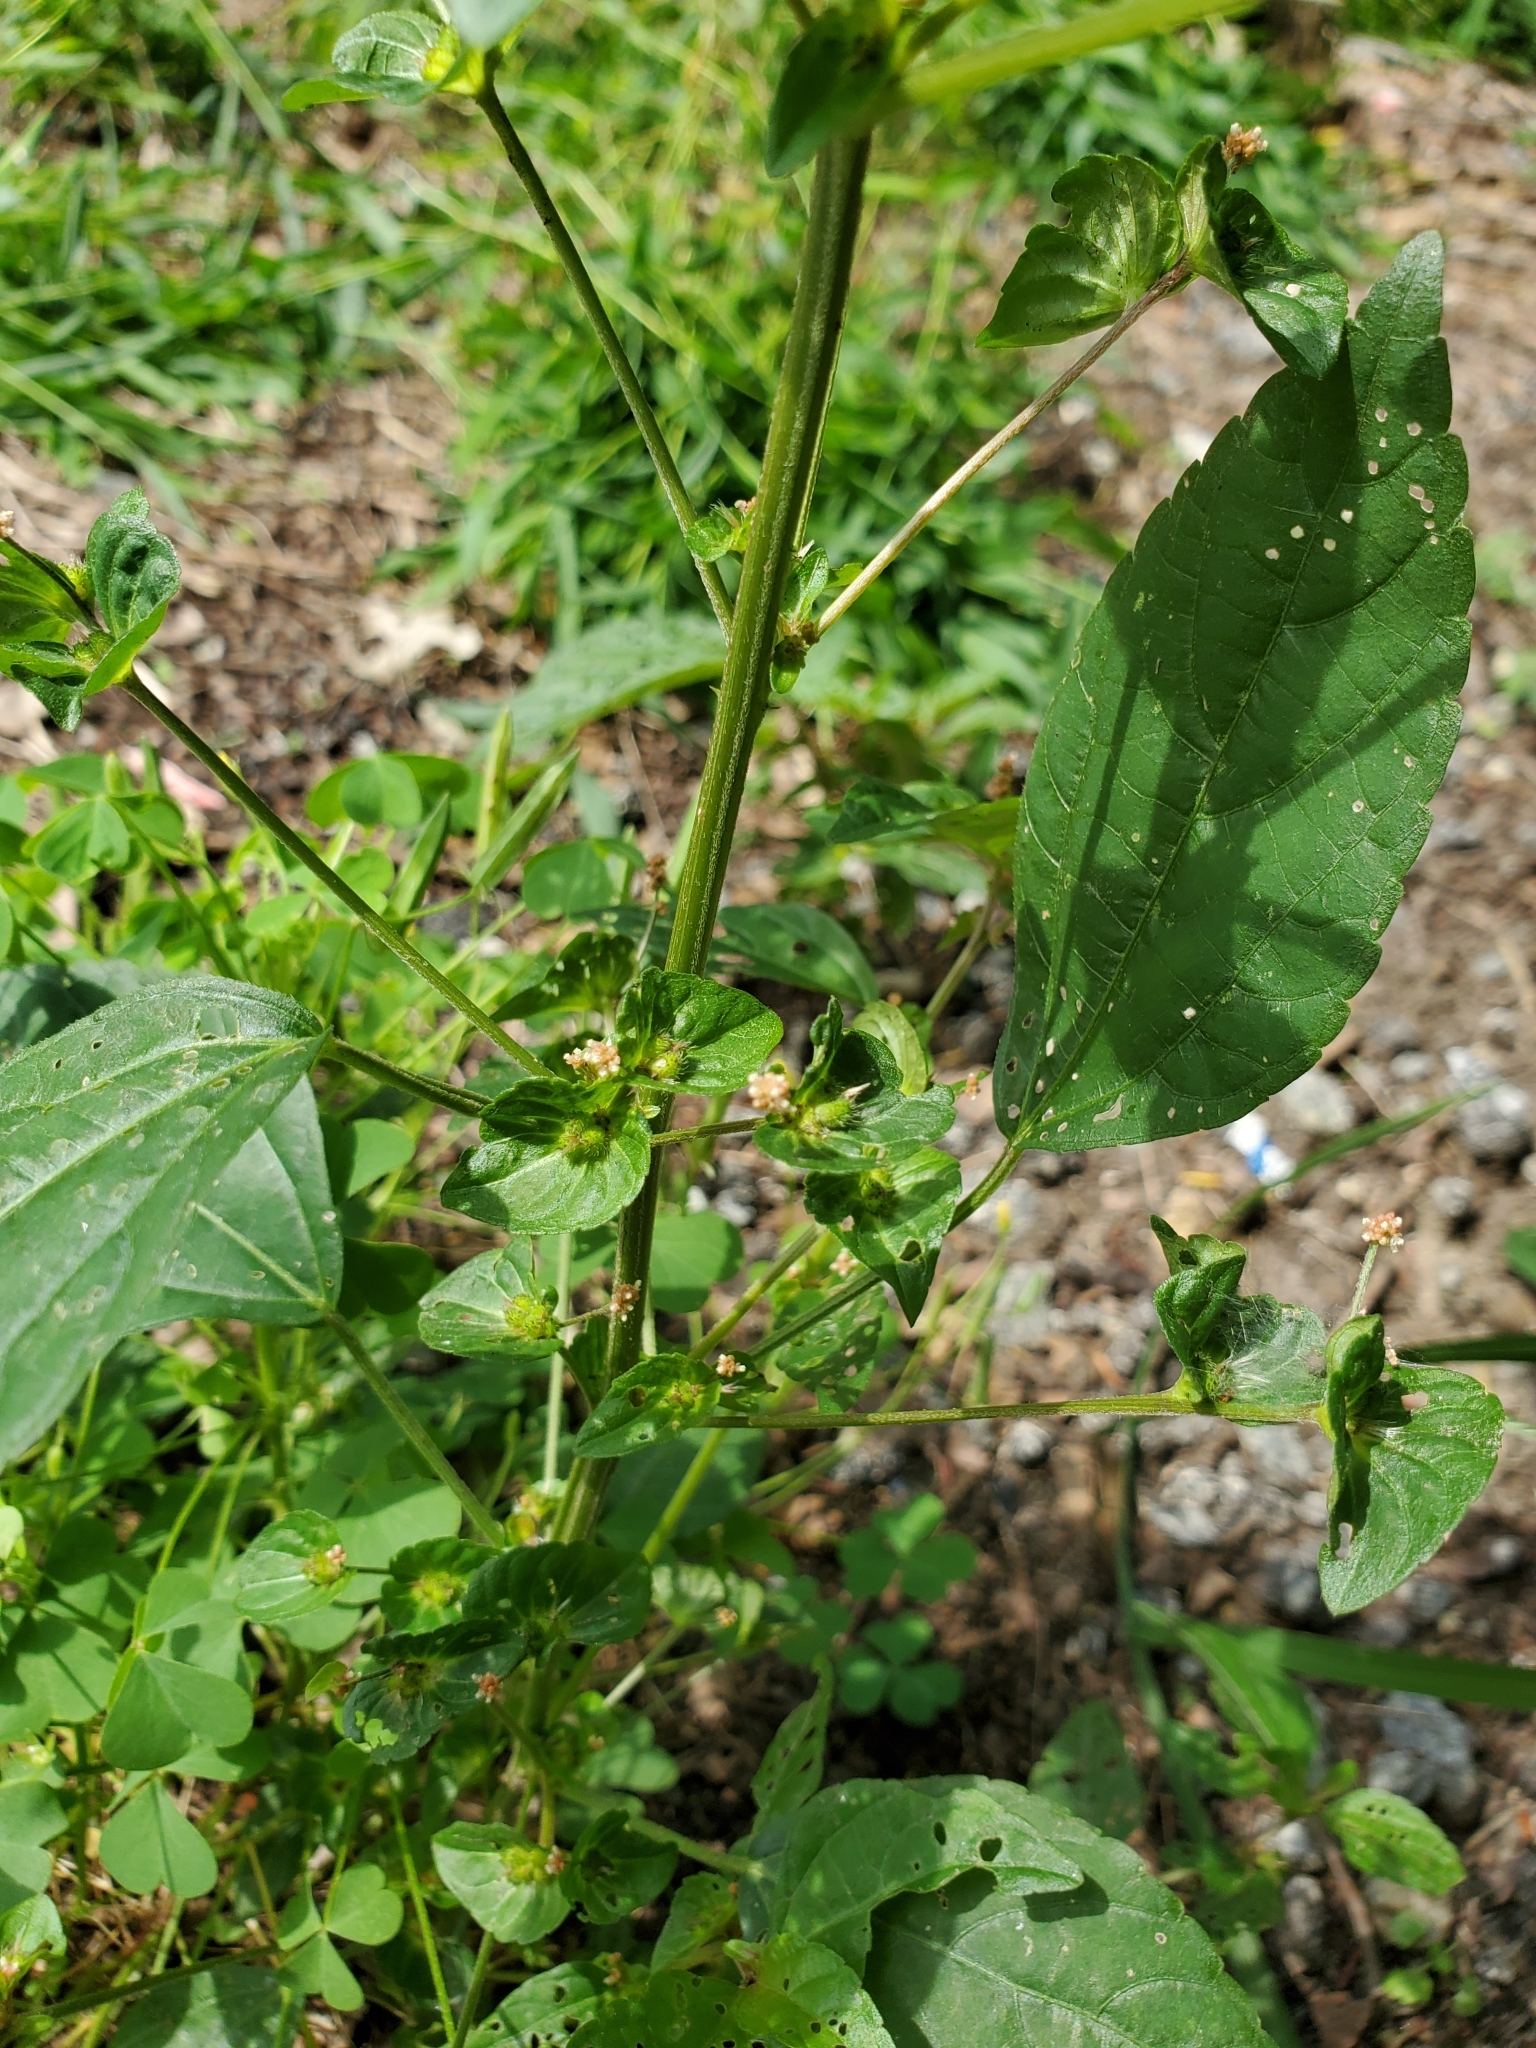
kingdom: Plantae
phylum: Tracheophyta
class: Magnoliopsida
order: Malpighiales
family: Euphorbiaceae
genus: Acalypha
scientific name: Acalypha australis
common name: Asian copperleaf
